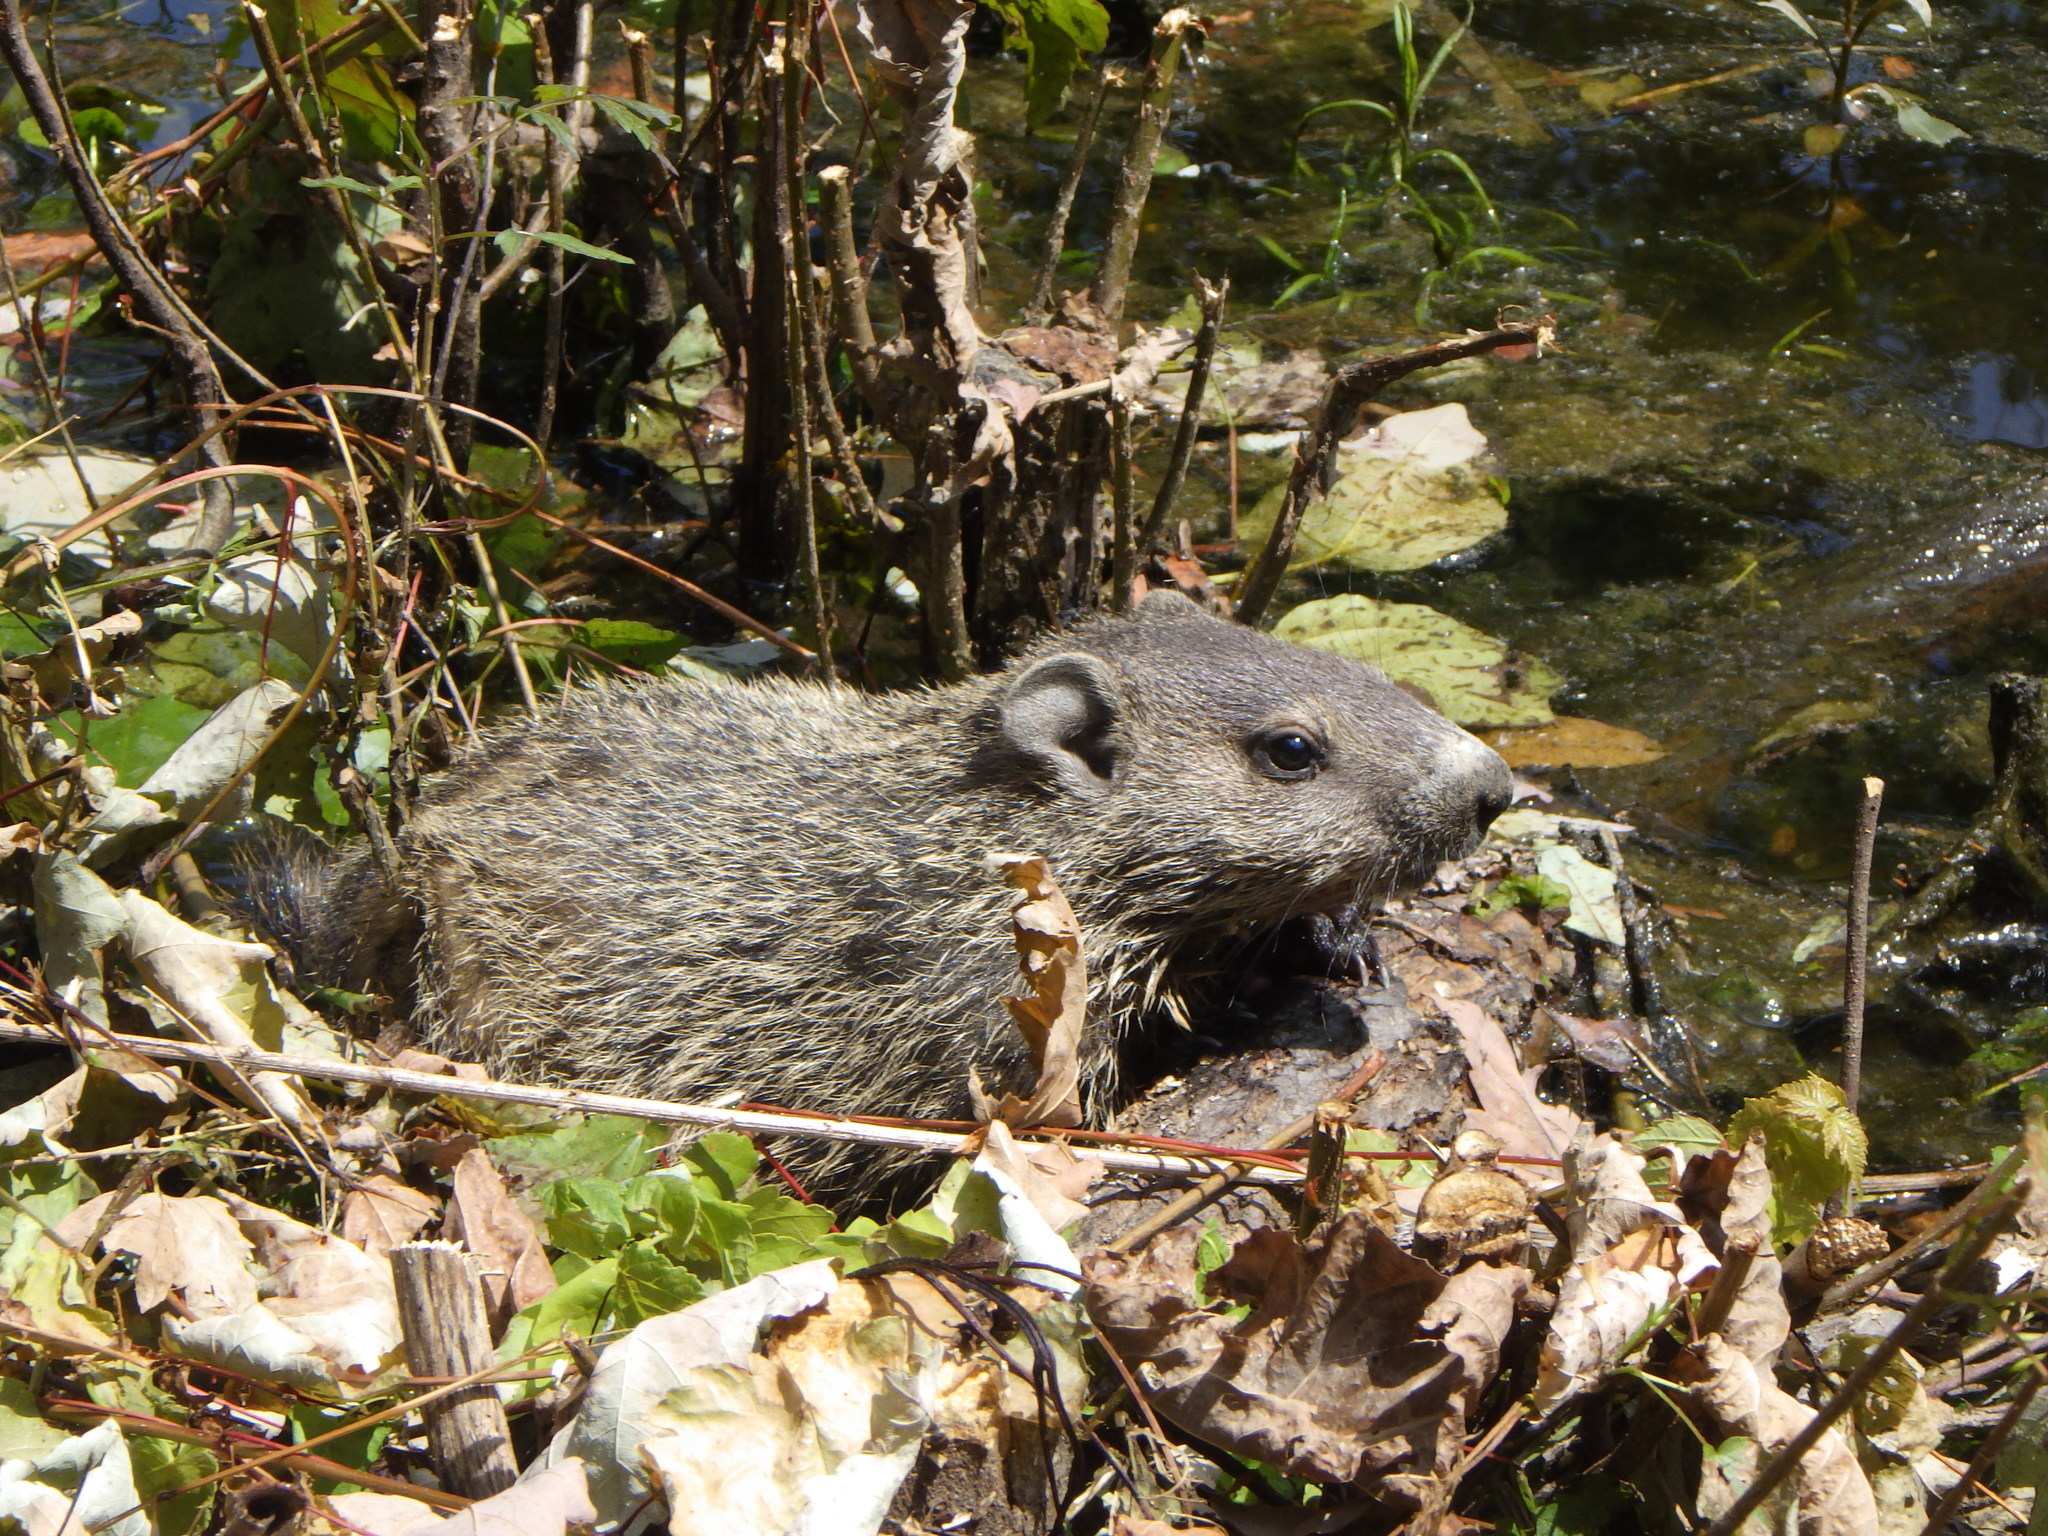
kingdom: Animalia
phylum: Chordata
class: Mammalia
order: Rodentia
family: Sciuridae
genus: Marmota
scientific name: Marmota monax
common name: Groundhog
